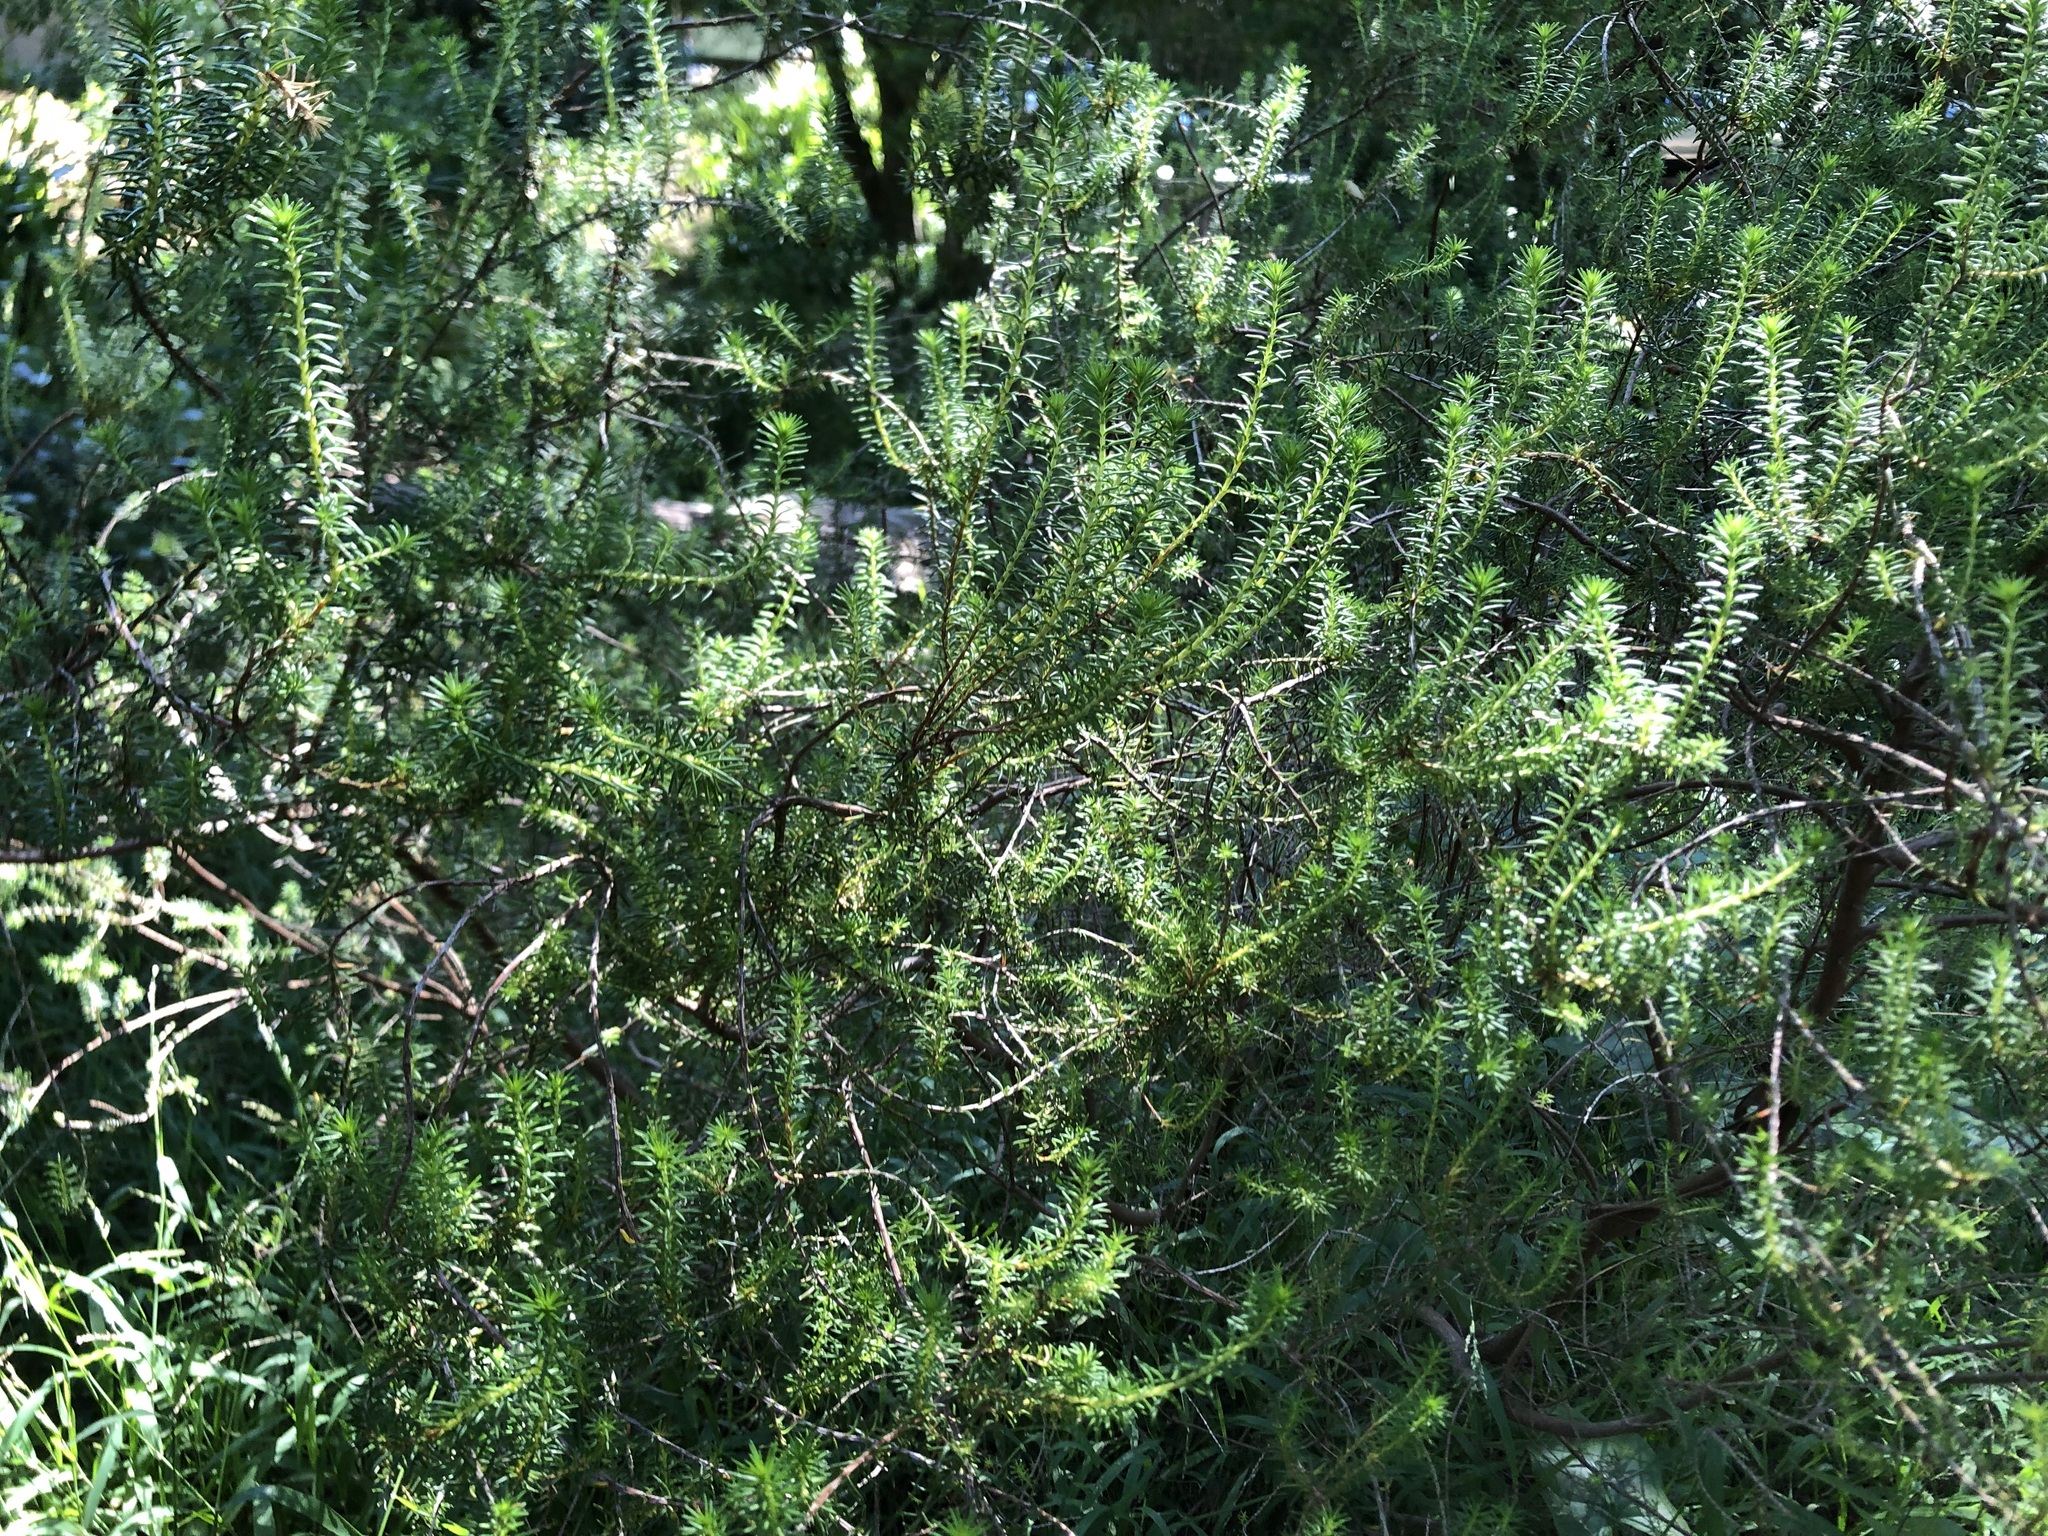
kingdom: Plantae
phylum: Tracheophyta
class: Magnoliopsida
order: Ericales
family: Ericaceae
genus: Erica
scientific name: Erica caffra
